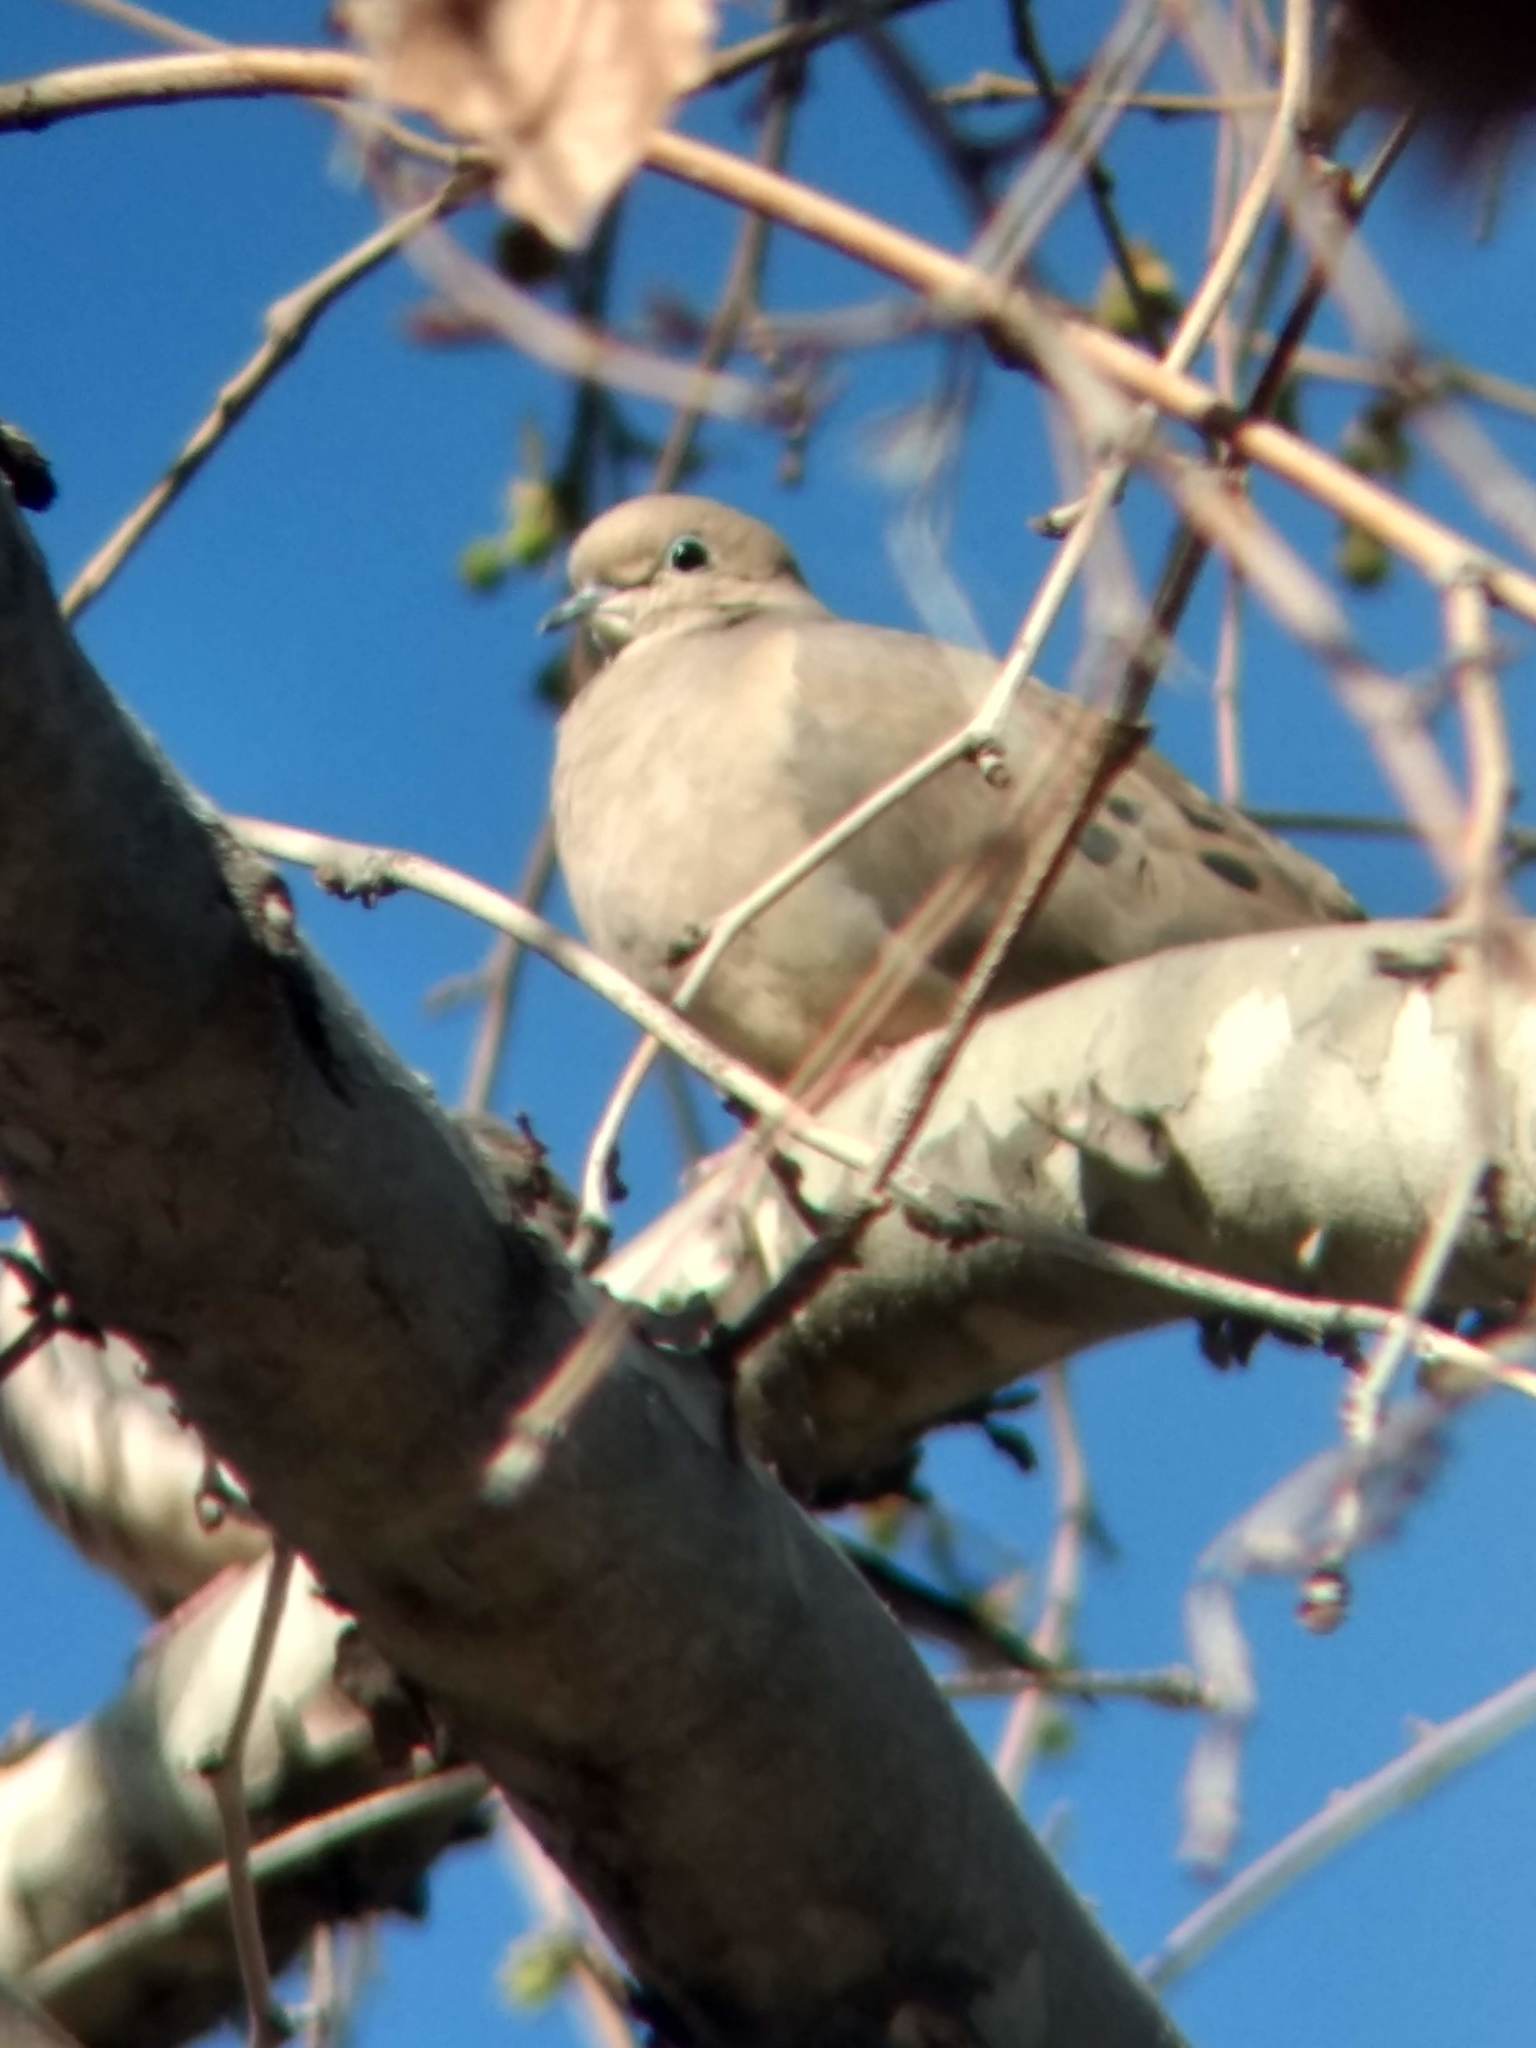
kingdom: Animalia
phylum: Chordata
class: Aves
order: Columbiformes
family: Columbidae
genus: Zenaida
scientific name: Zenaida macroura
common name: Mourning dove
